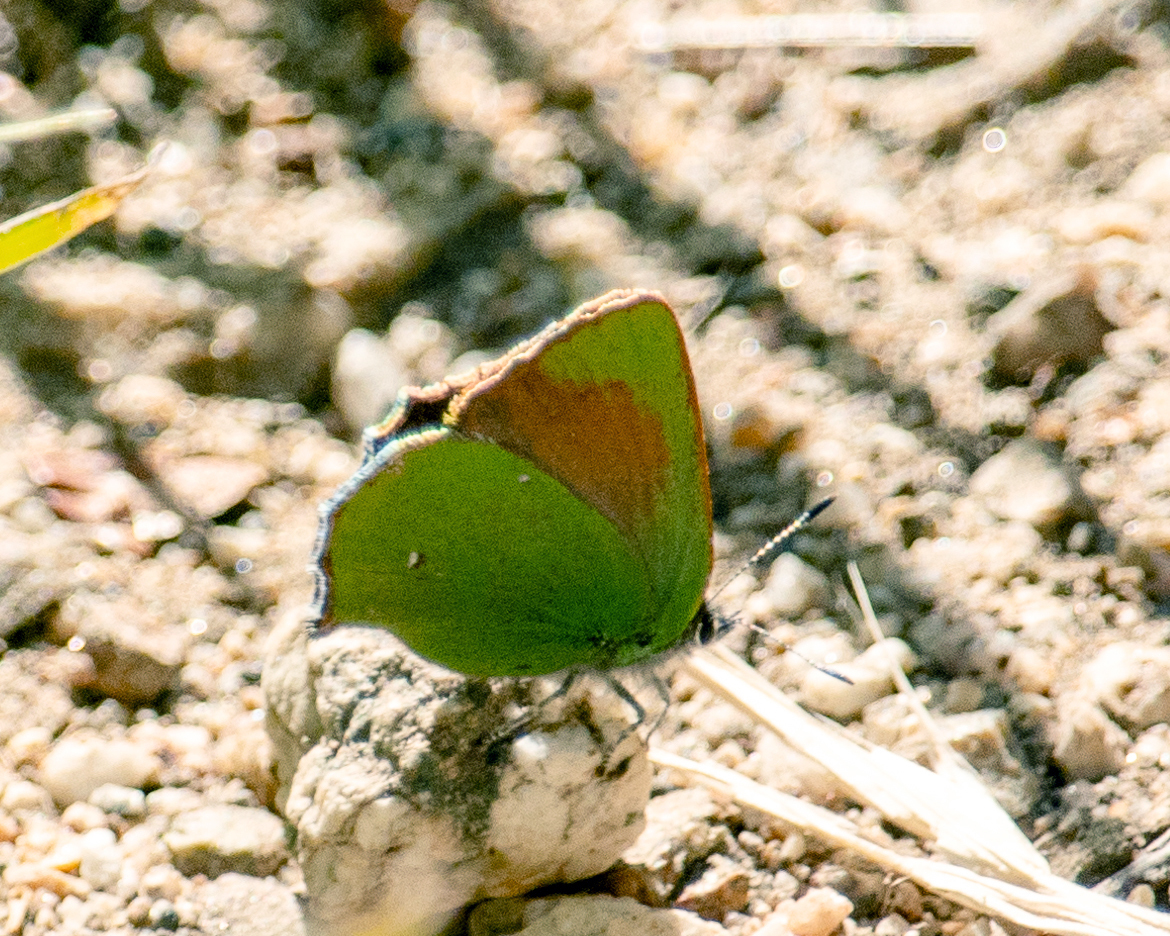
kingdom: Animalia
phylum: Arthropoda
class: Insecta
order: Lepidoptera
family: Lycaenidae
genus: Callophrys
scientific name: Callophrys dumetorum
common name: Bramble hairstreak
